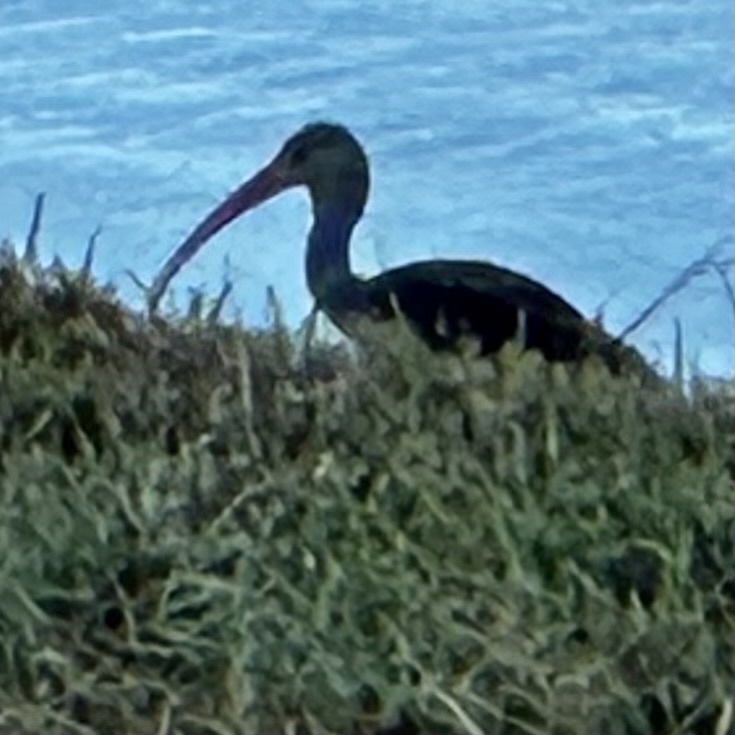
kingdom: Animalia
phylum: Chordata
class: Aves
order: Pelecaniformes
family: Threskiornithidae
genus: Eudocimus
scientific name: Eudocimus albus
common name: White ibis
